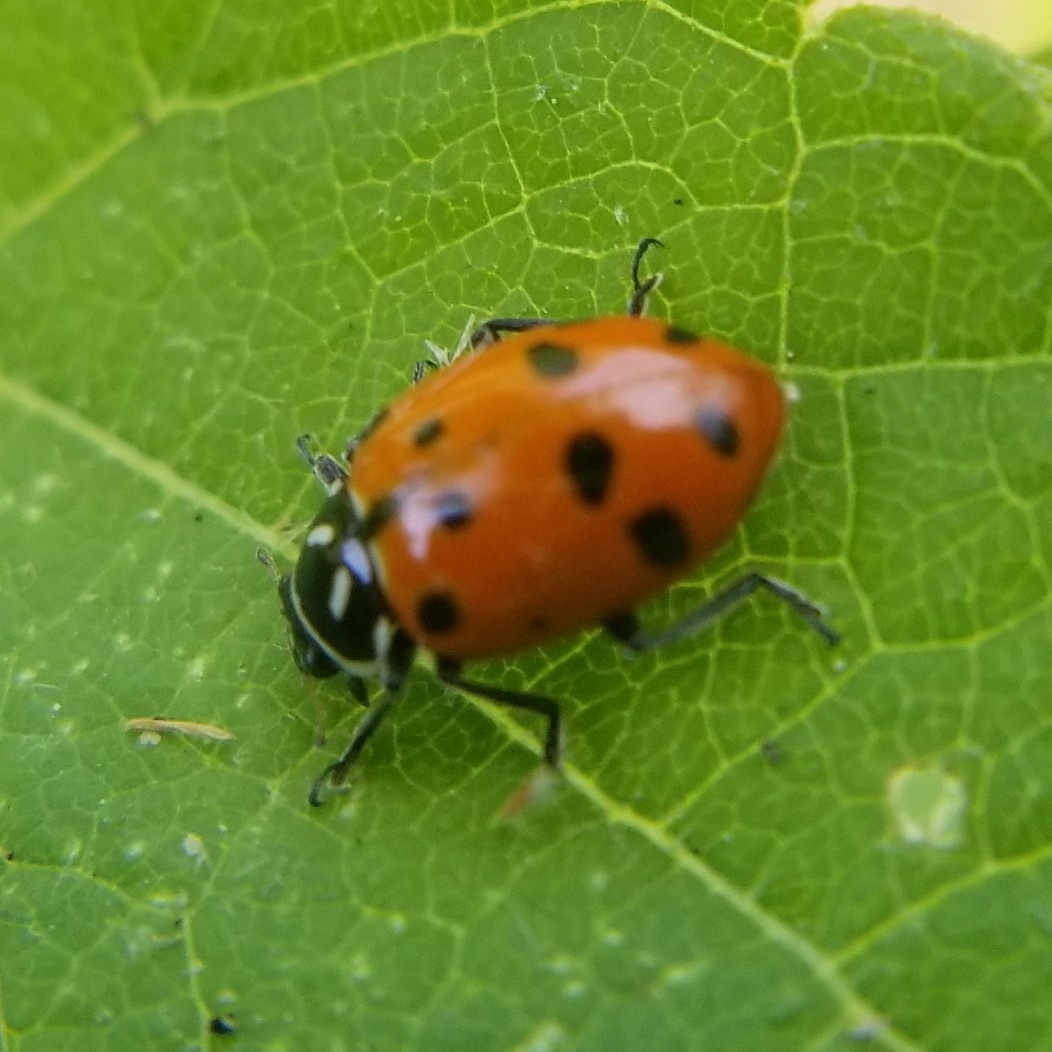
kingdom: Animalia
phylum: Arthropoda
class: Insecta
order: Coleoptera
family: Coccinellidae
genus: Hippodamia
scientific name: Hippodamia convergens
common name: Convergent lady beetle
